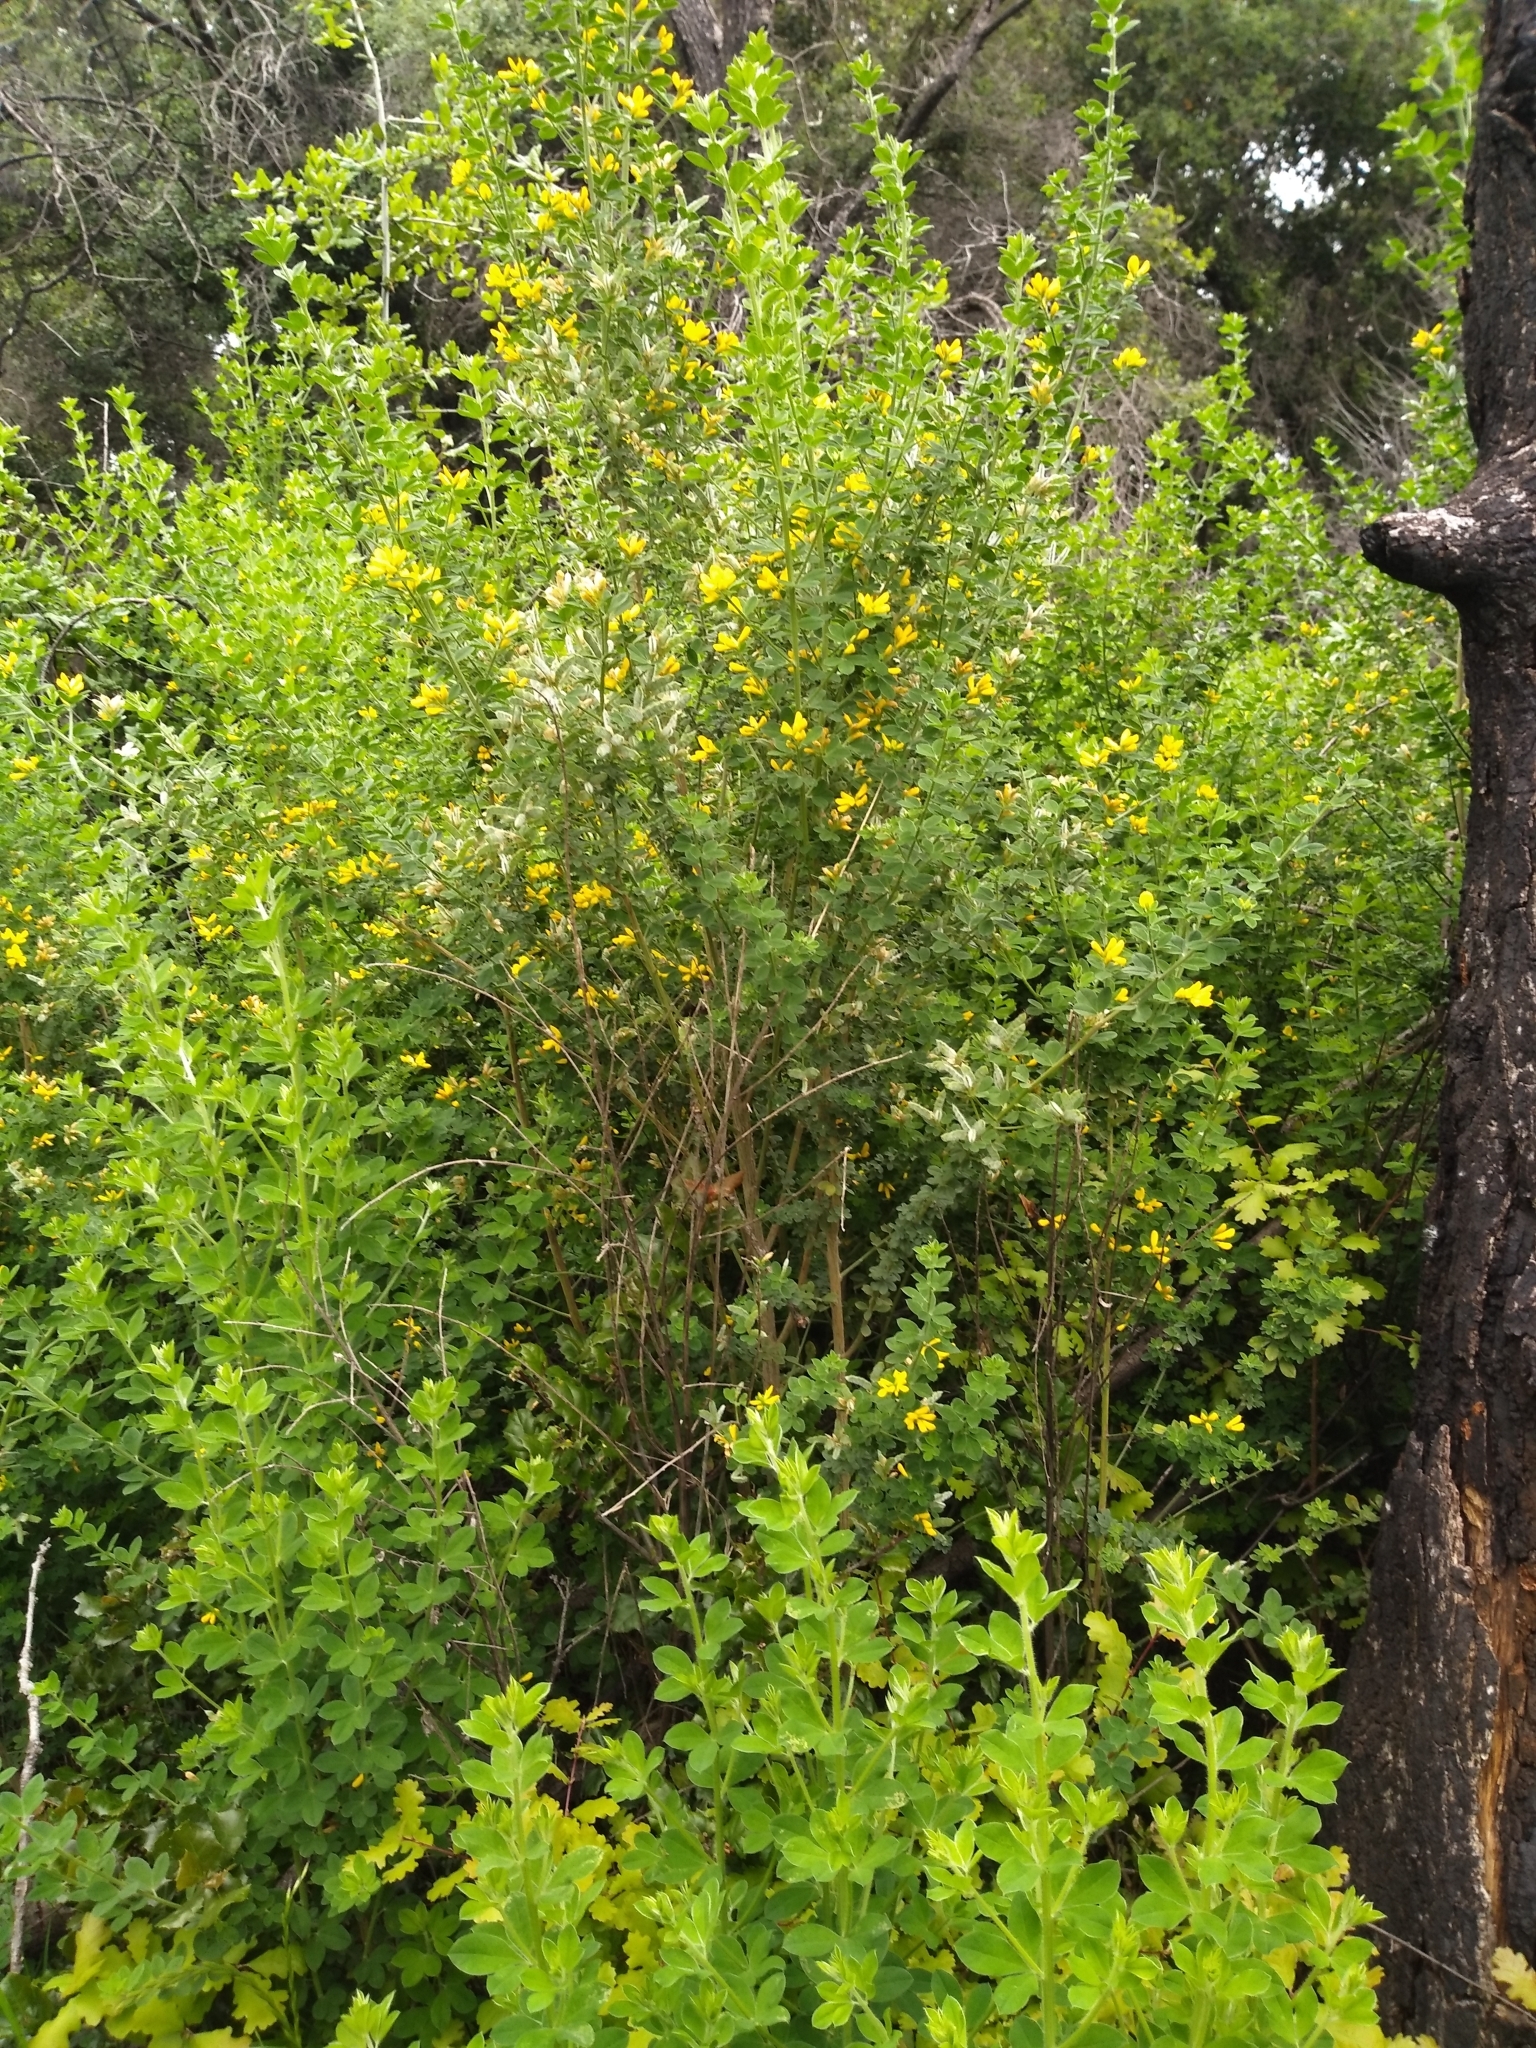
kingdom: Plantae
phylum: Tracheophyta
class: Magnoliopsida
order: Fabales
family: Fabaceae
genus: Genista
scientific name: Genista monspessulana
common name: Montpellier broom
